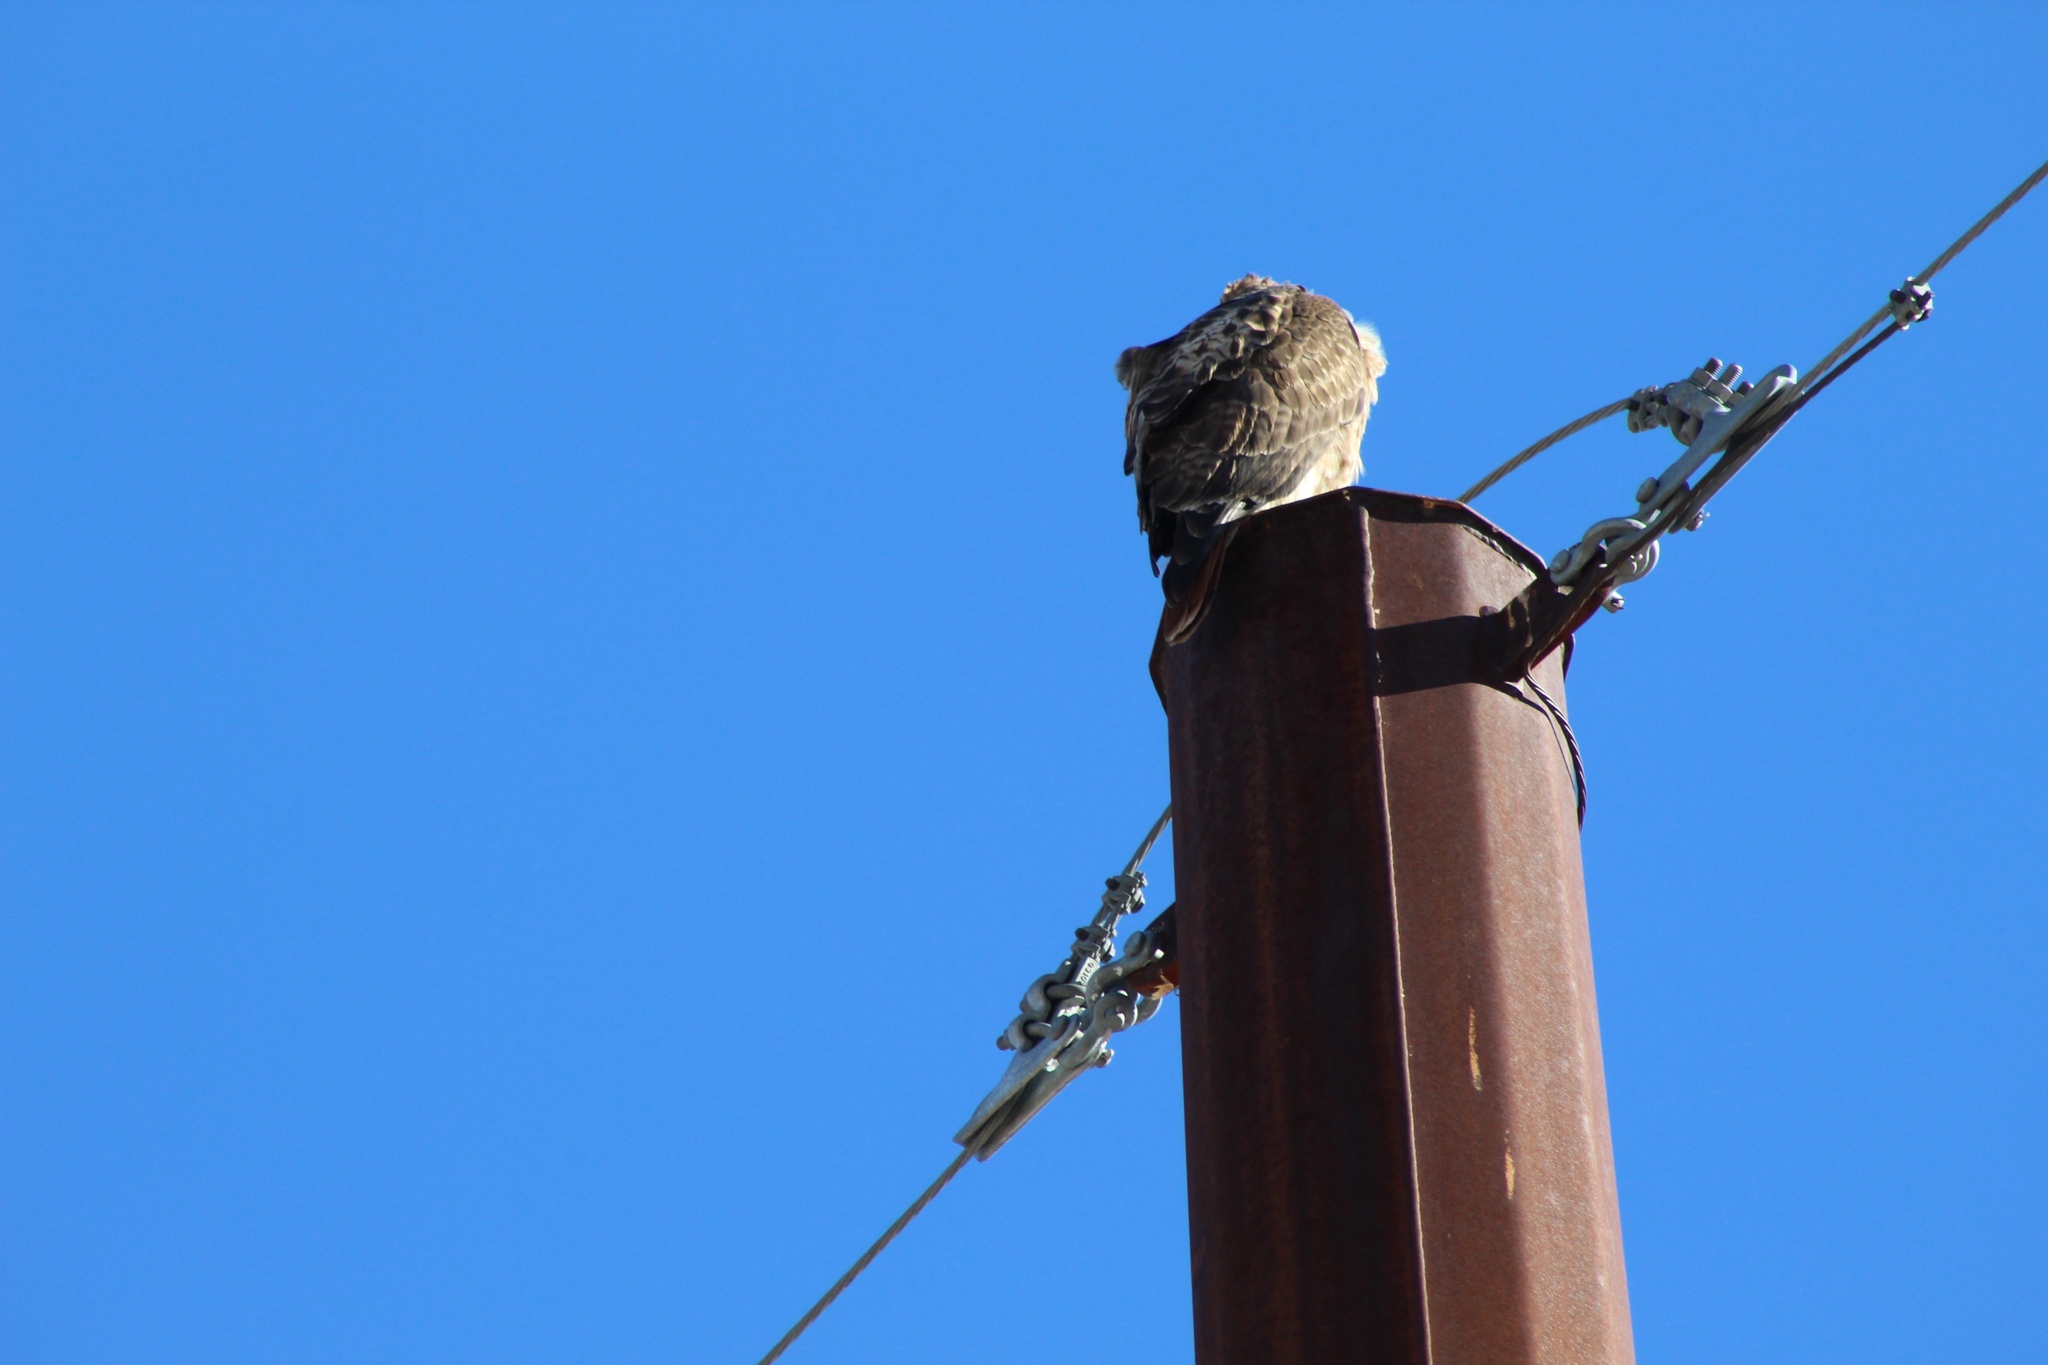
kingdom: Animalia
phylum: Chordata
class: Aves
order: Accipitriformes
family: Accipitridae
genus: Buteo
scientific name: Buteo jamaicensis
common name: Red-tailed hawk
